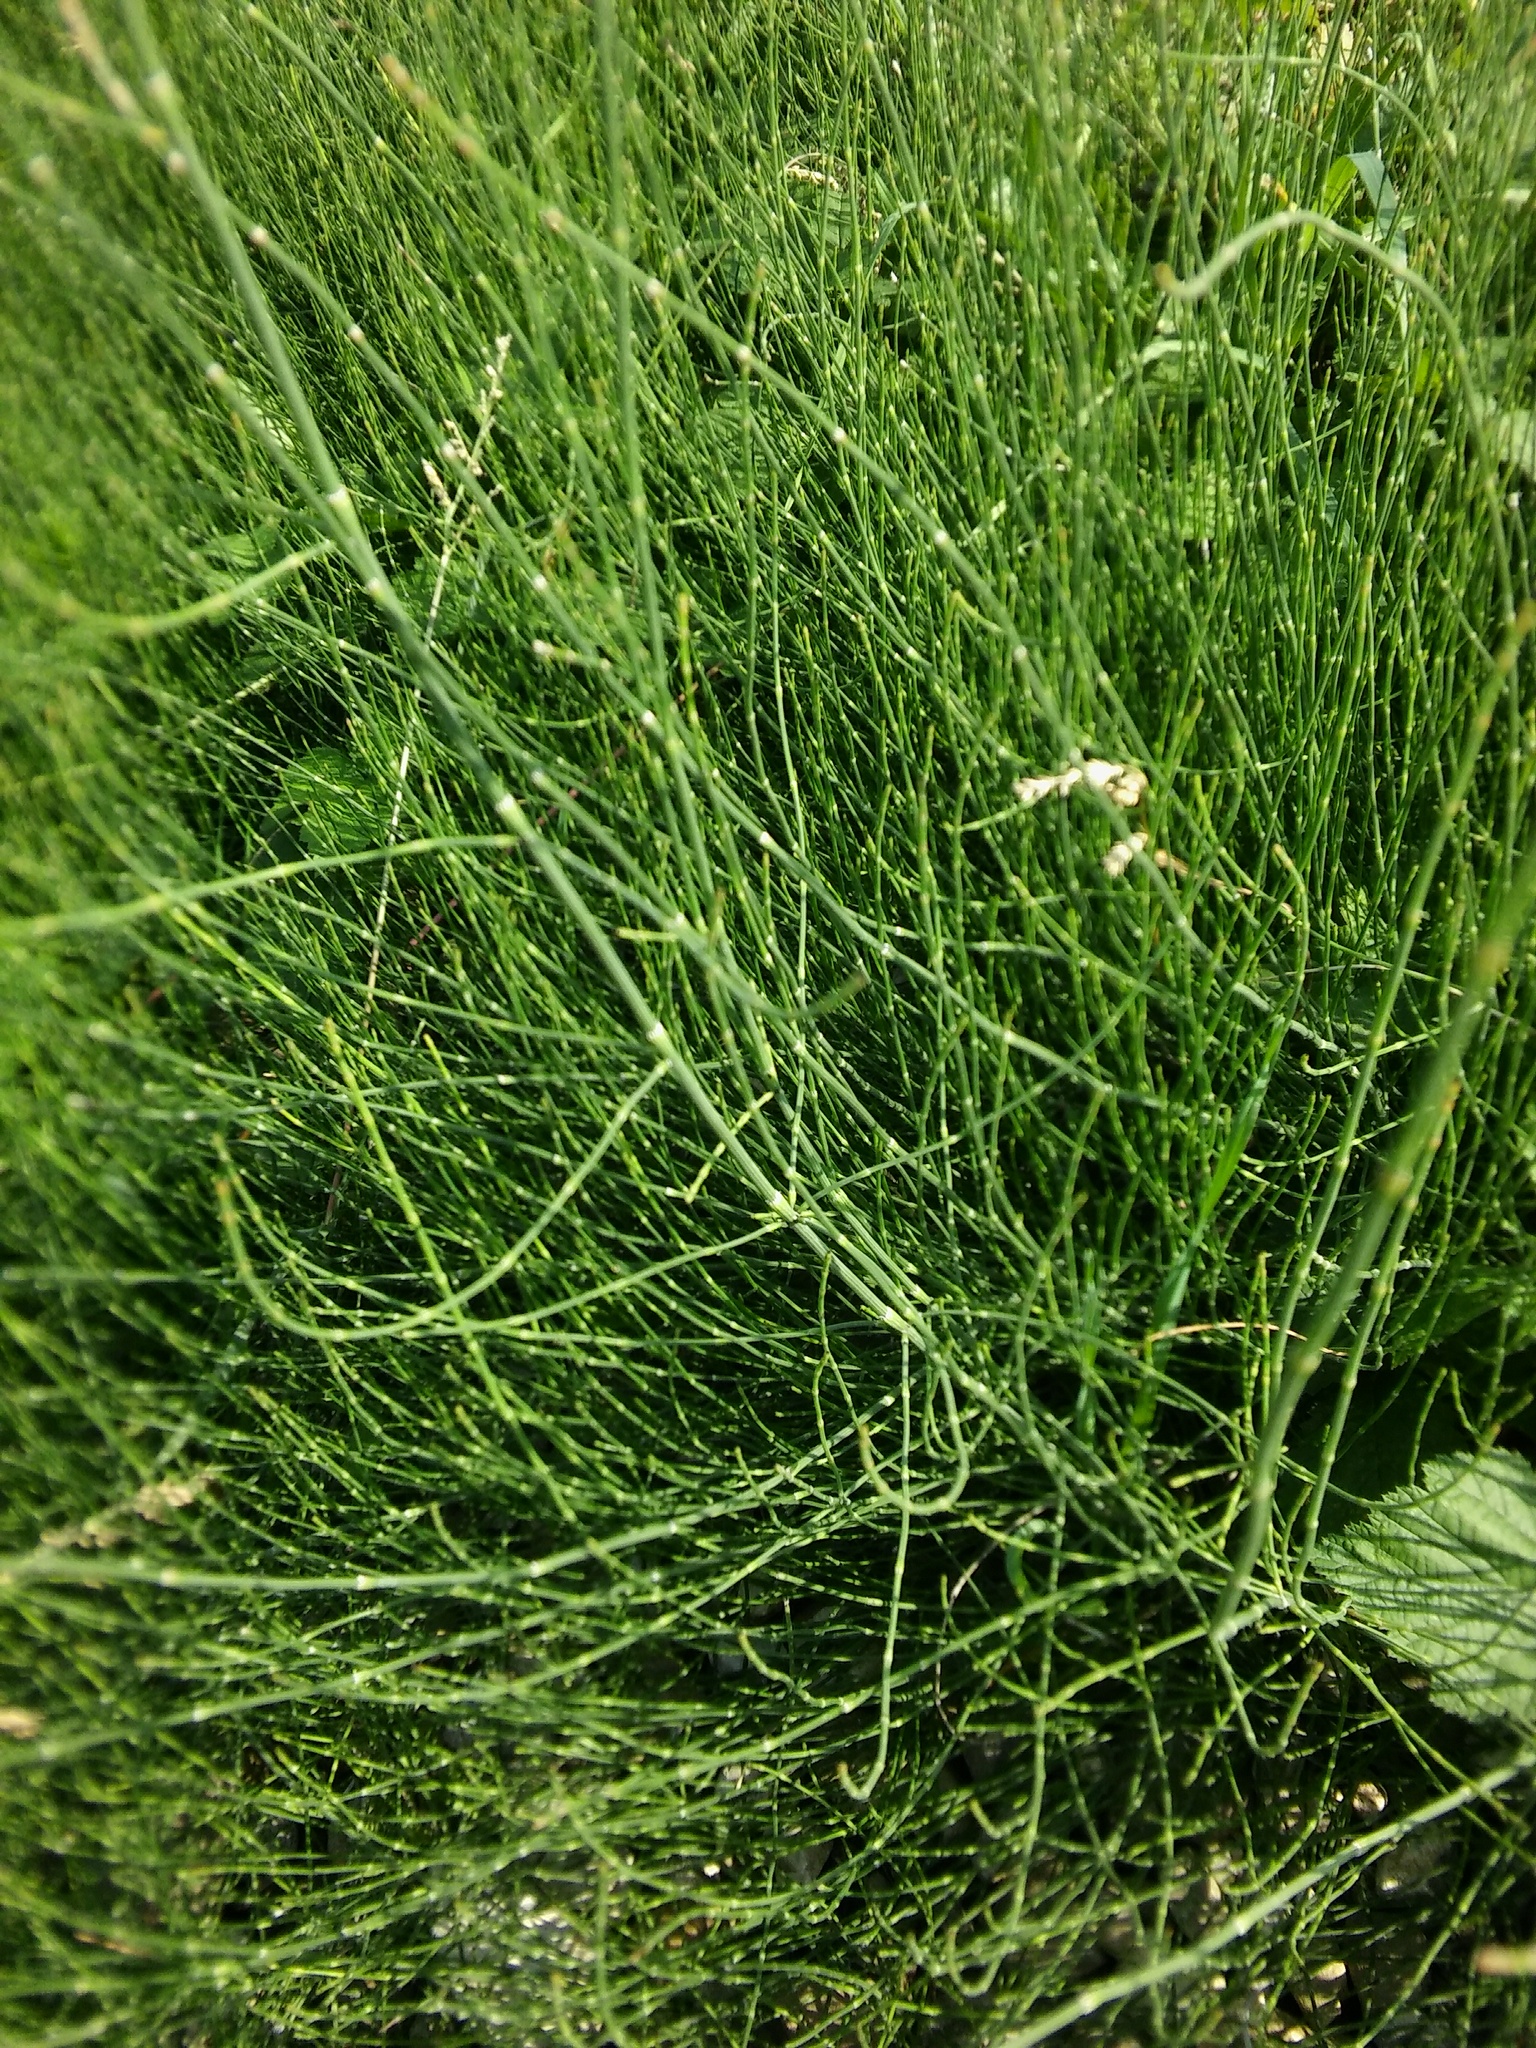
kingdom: Plantae
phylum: Tracheophyta
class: Polypodiopsida
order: Equisetales
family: Equisetaceae
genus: Equisetum
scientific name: Equisetum ramosissimum
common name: Branched horsetail
